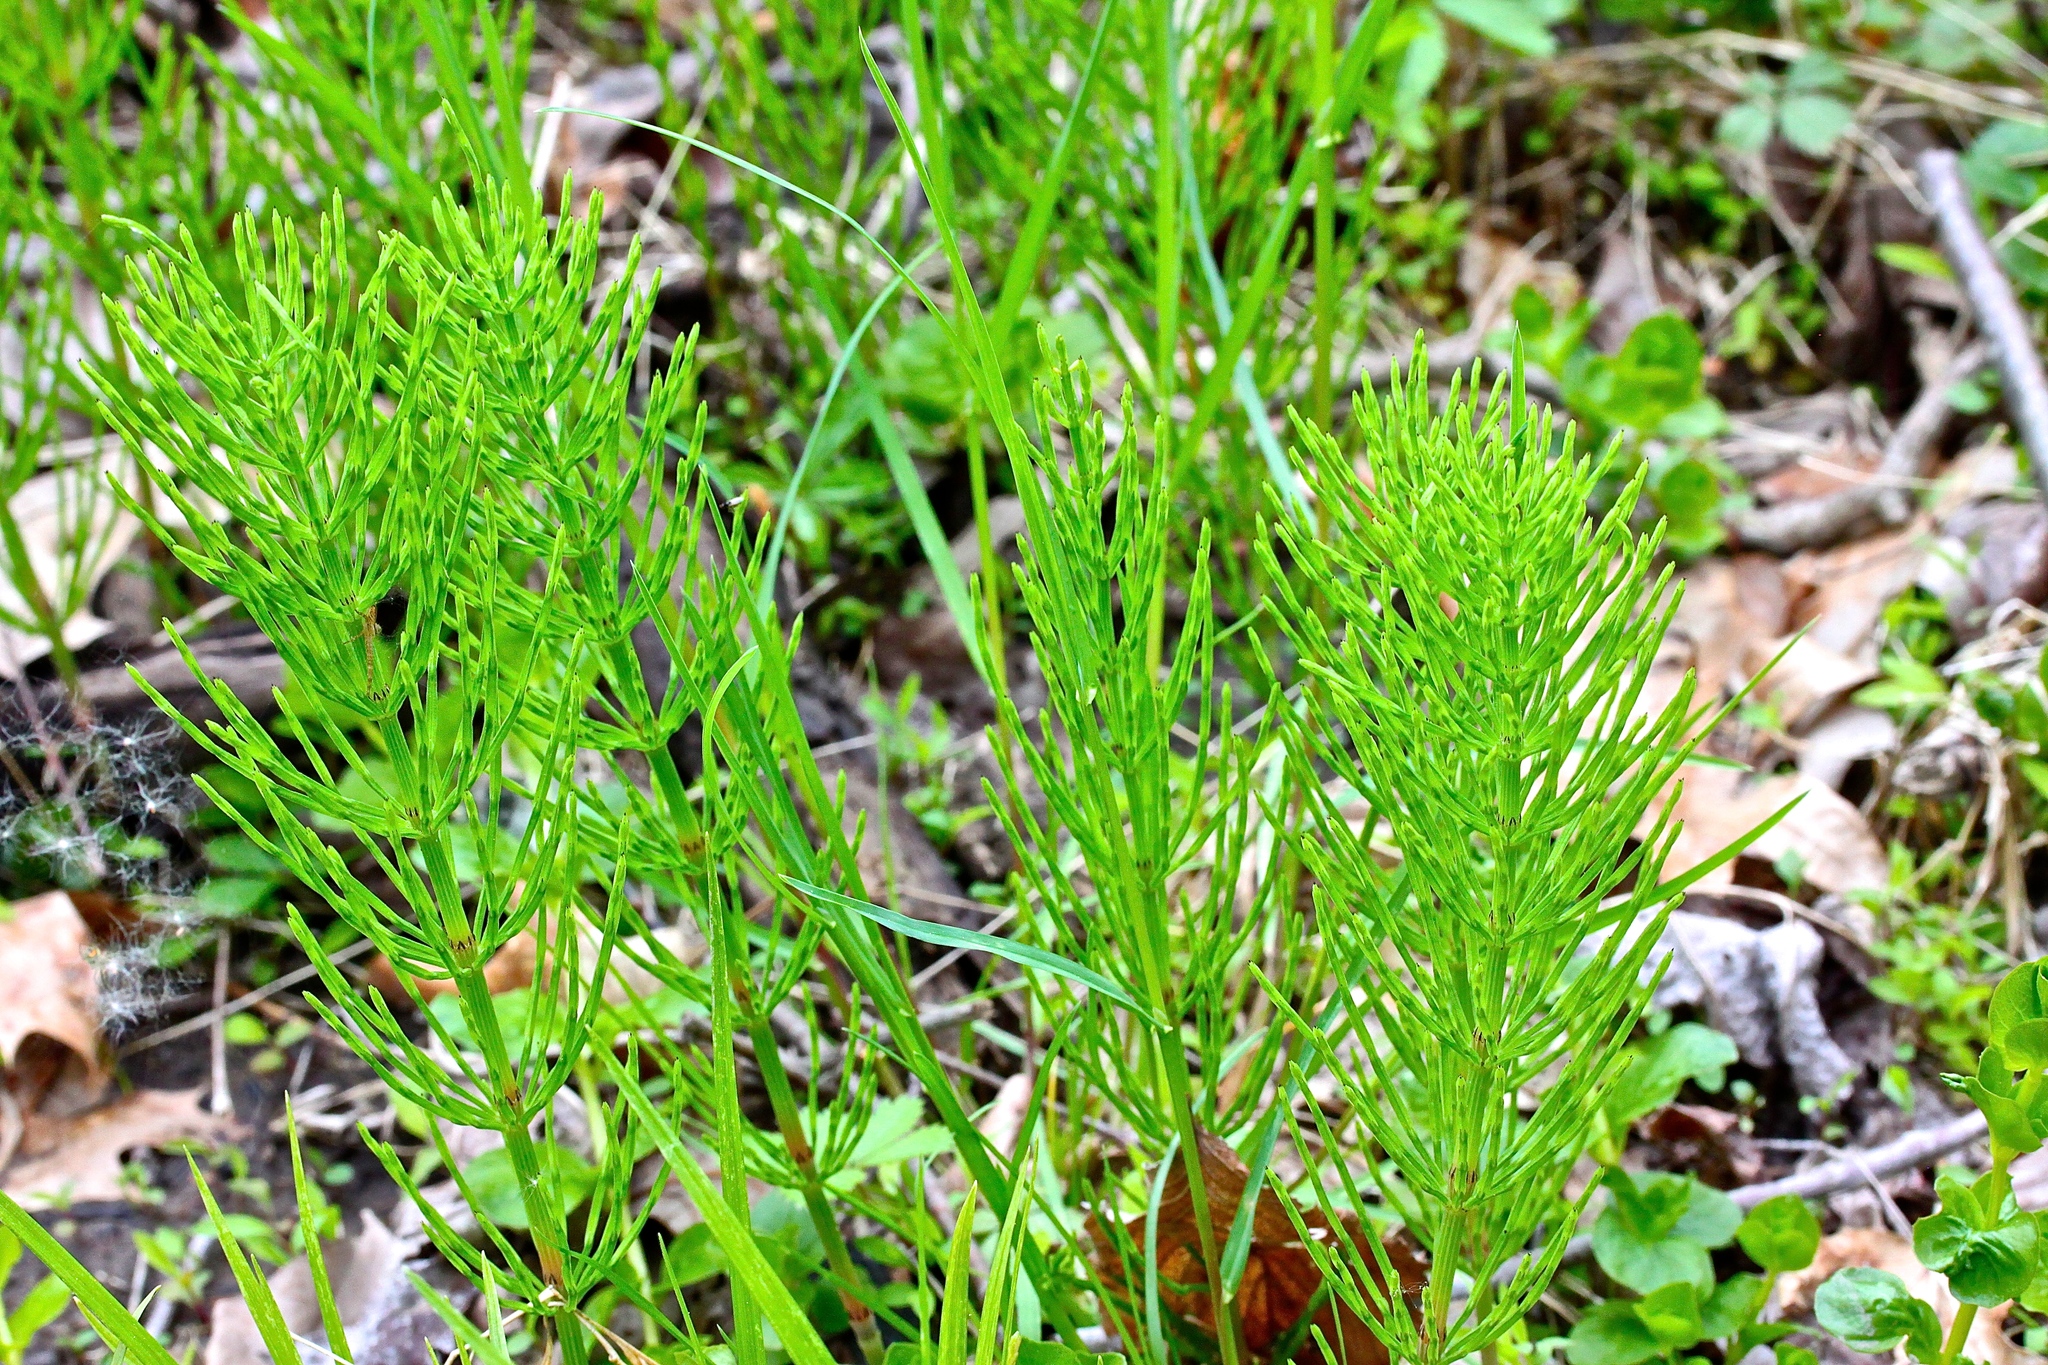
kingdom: Plantae
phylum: Tracheophyta
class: Polypodiopsida
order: Equisetales
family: Equisetaceae
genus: Equisetum
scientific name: Equisetum arvense
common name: Field horsetail
